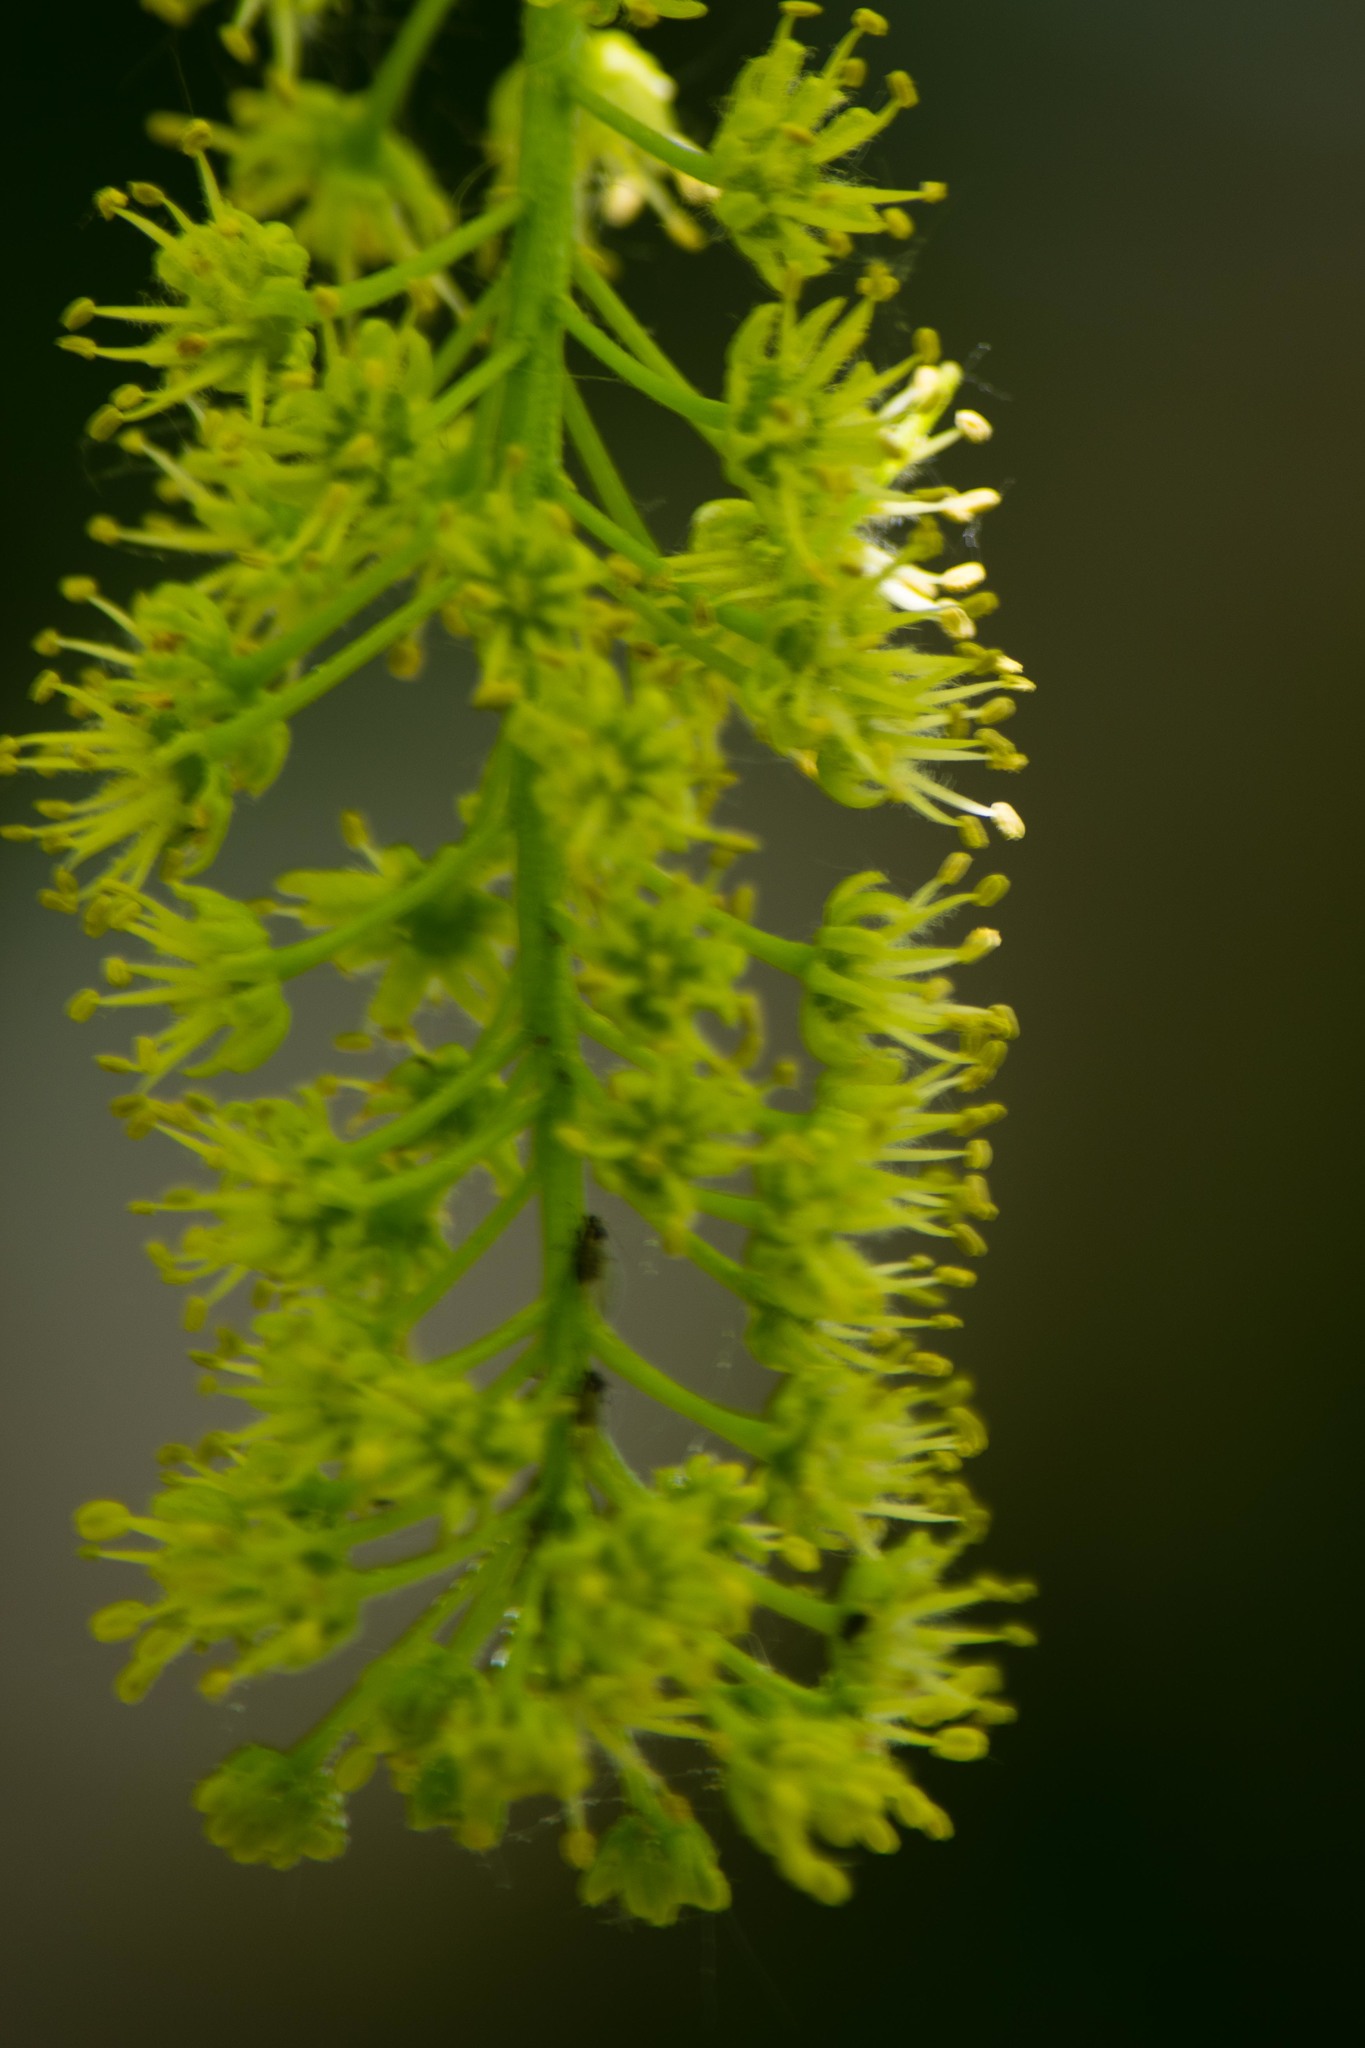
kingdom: Plantae
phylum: Tracheophyta
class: Magnoliopsida
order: Sapindales
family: Sapindaceae
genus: Acer
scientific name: Acer pseudoplatanus
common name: Sycamore
